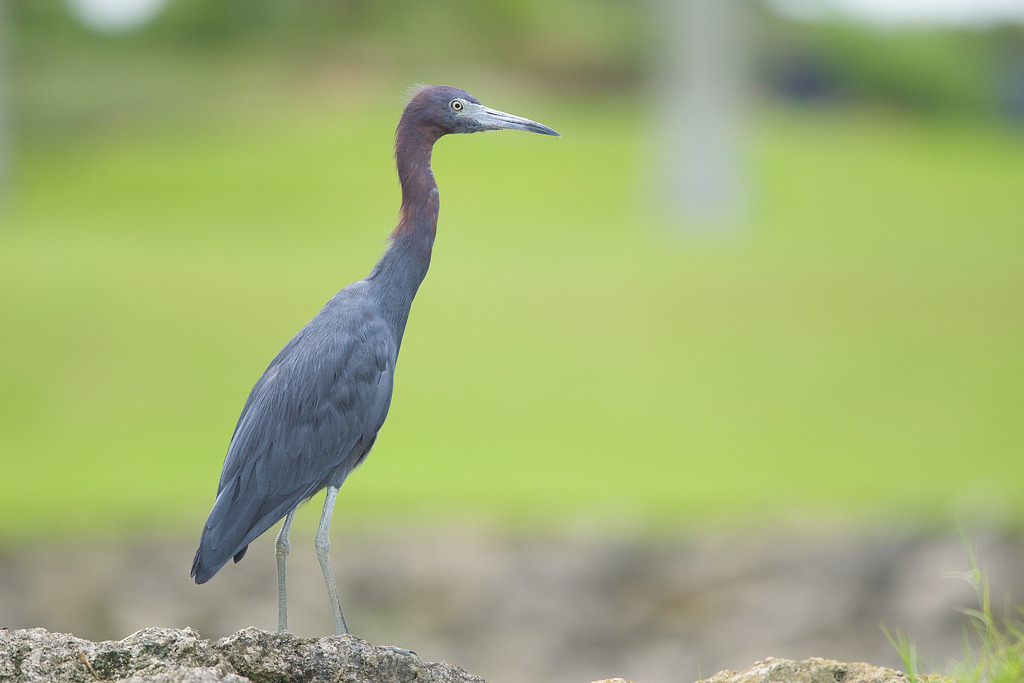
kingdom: Animalia
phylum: Chordata
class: Aves
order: Pelecaniformes
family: Ardeidae
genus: Egretta
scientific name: Egretta caerulea
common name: Little blue heron
